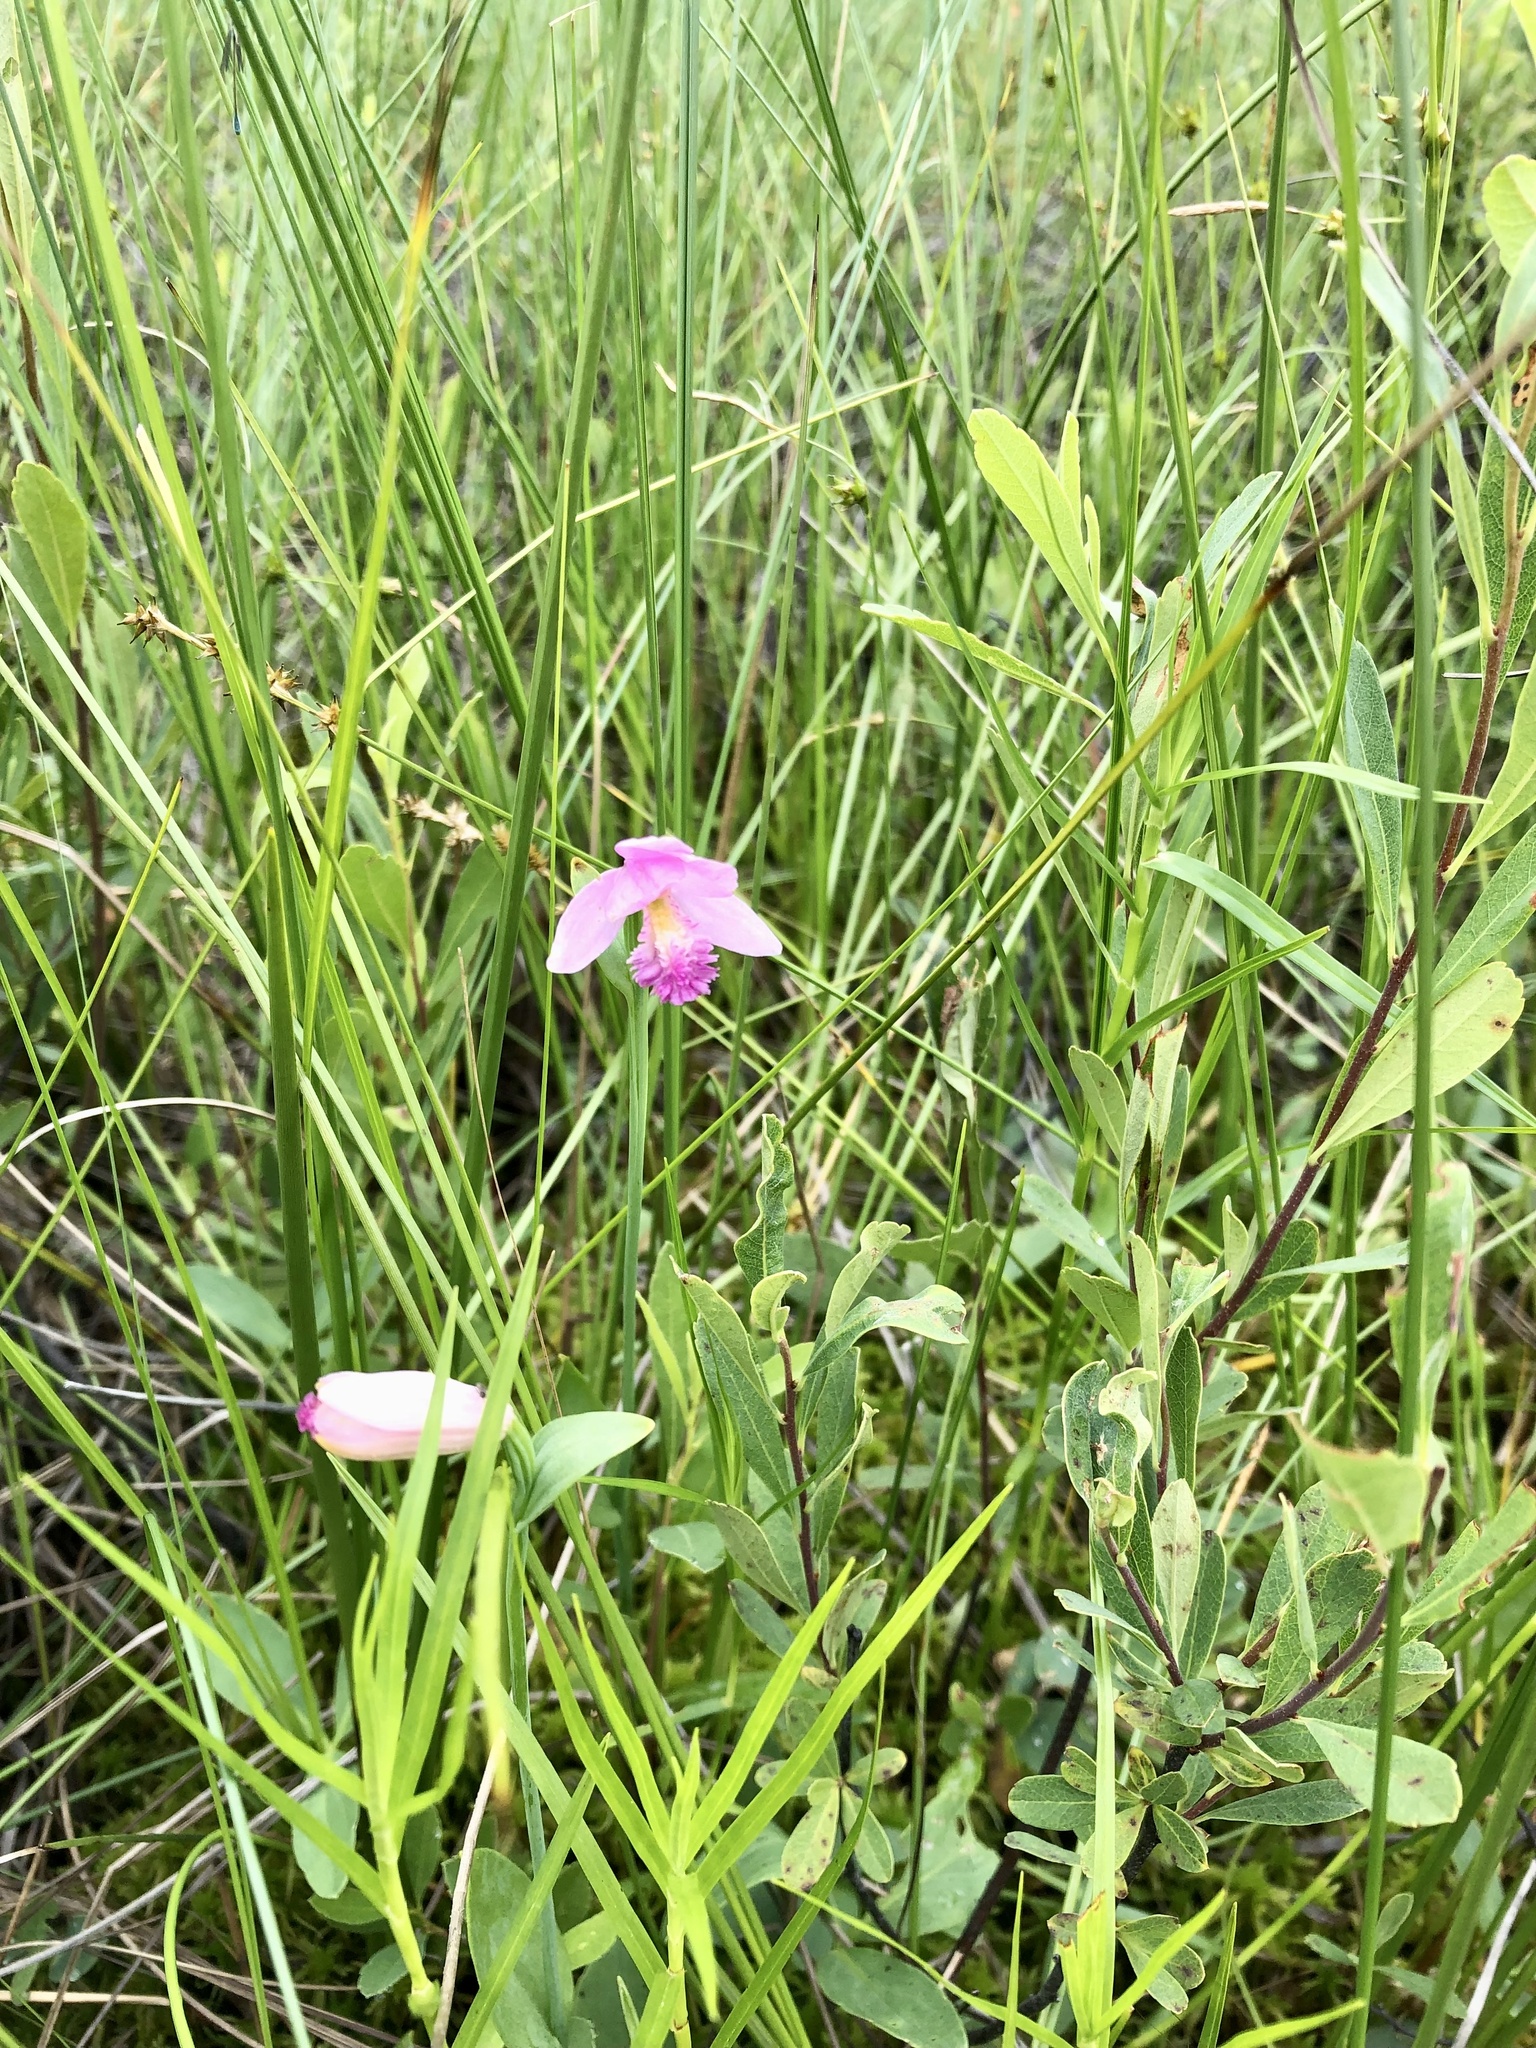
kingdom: Plantae
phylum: Tracheophyta
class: Liliopsida
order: Asparagales
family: Orchidaceae
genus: Pogonia
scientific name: Pogonia ophioglossoides
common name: Rose pogonia
